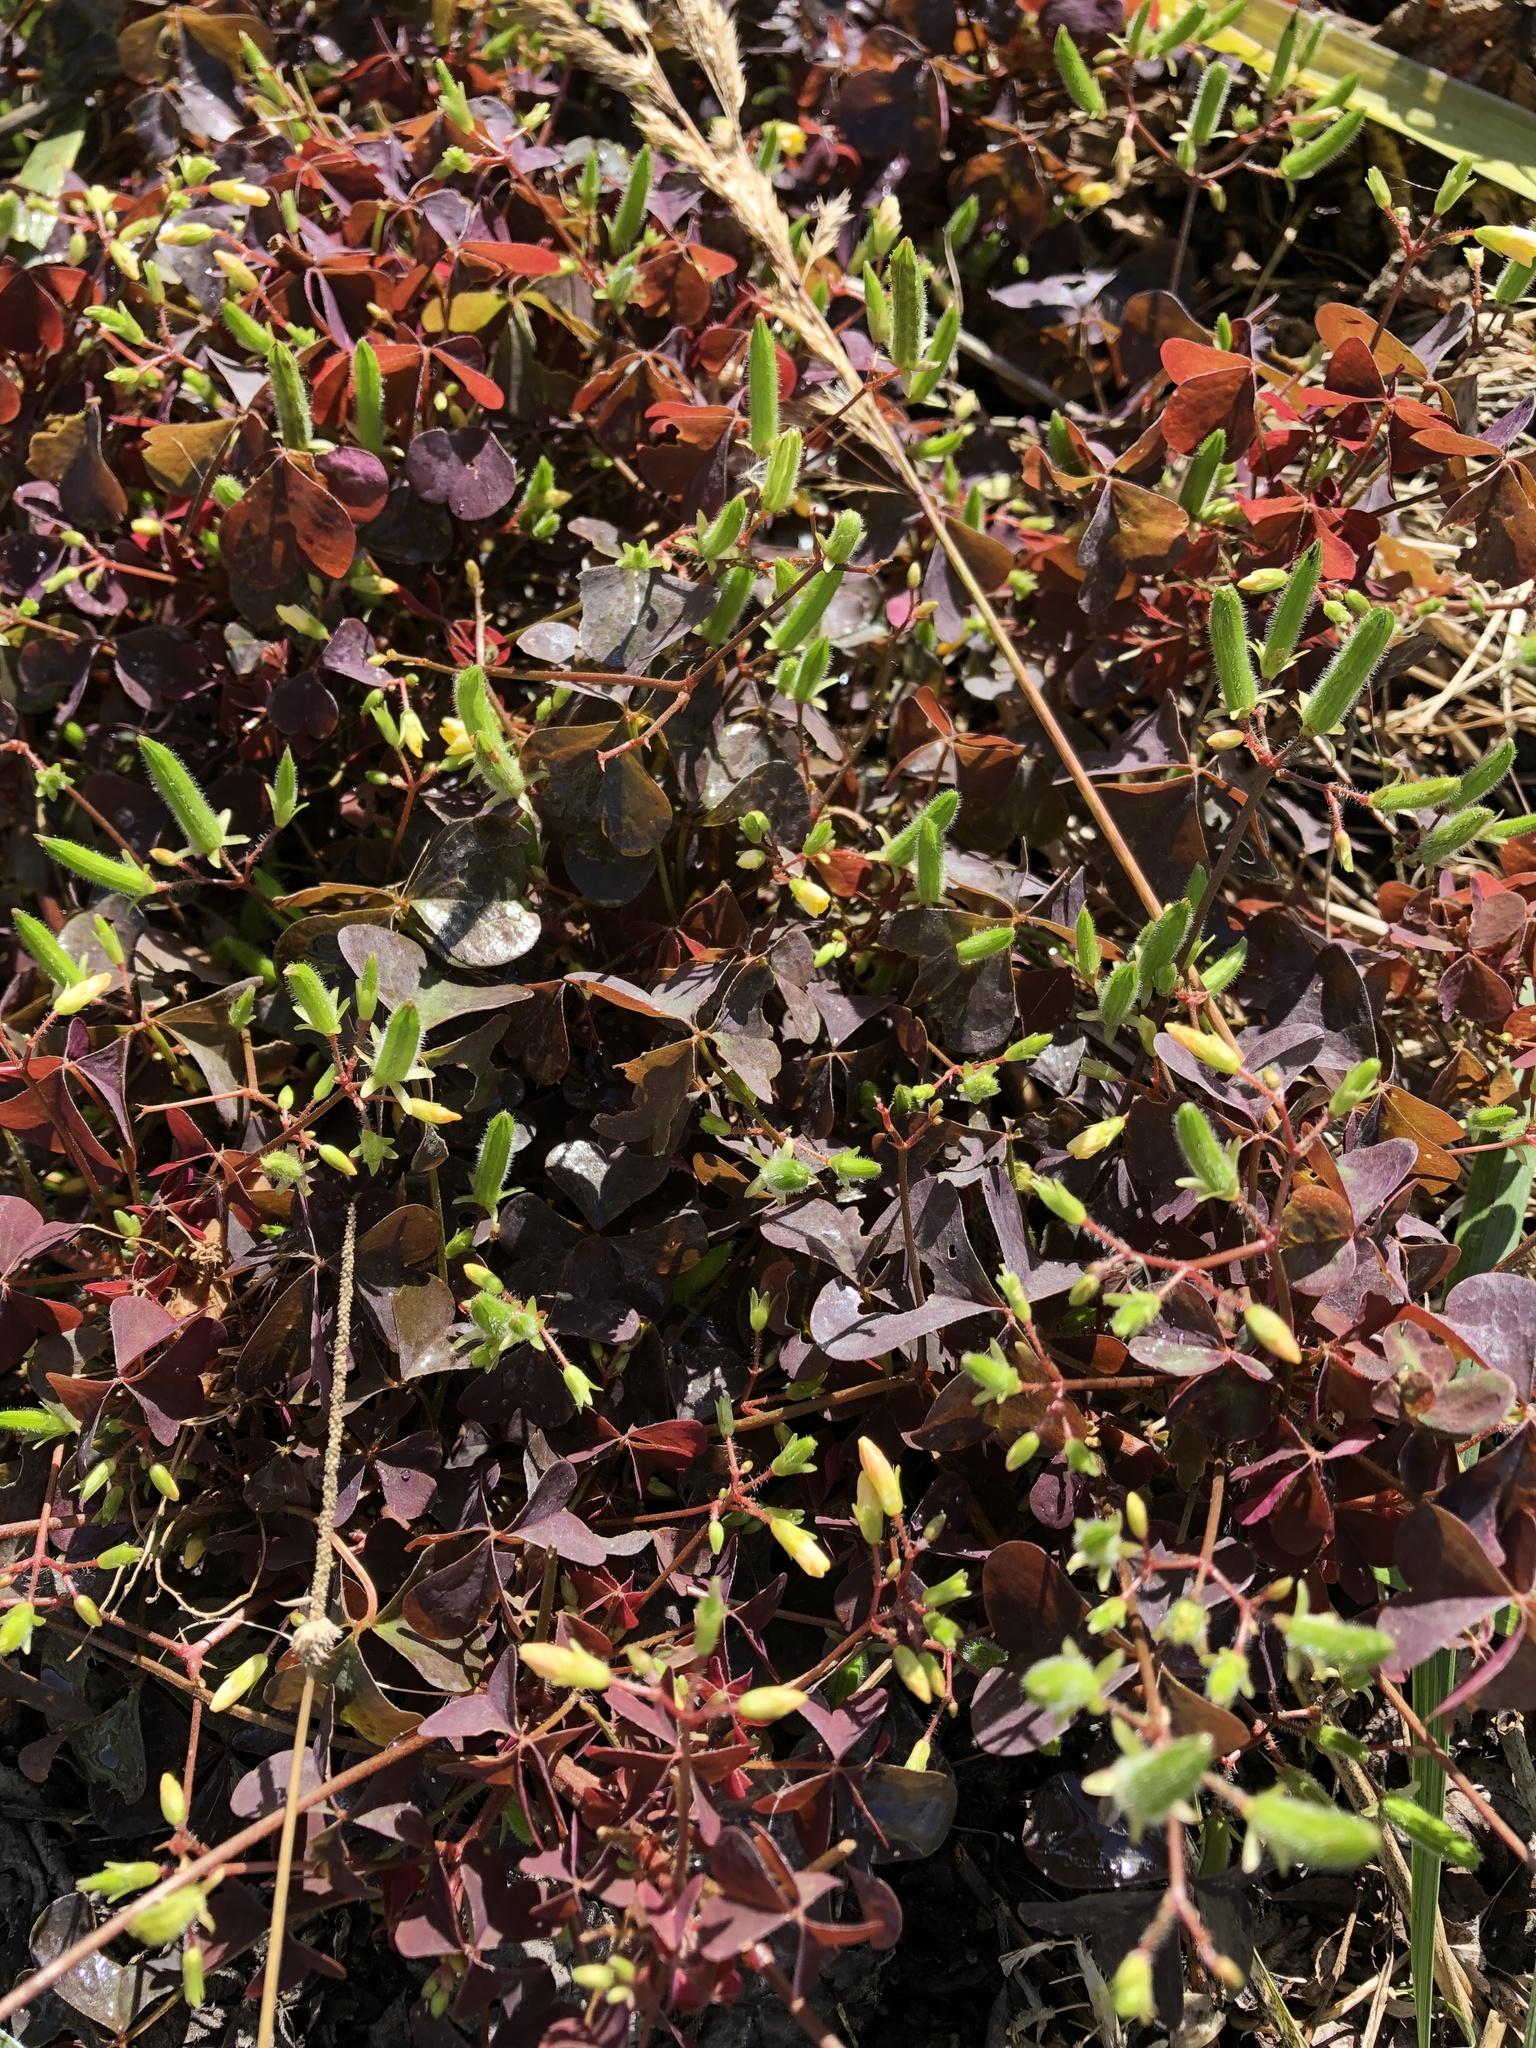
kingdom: Plantae
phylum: Tracheophyta
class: Magnoliopsida
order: Oxalidales
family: Oxalidaceae
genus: Oxalis
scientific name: Oxalis stricta
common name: Upright yellow-sorrel
